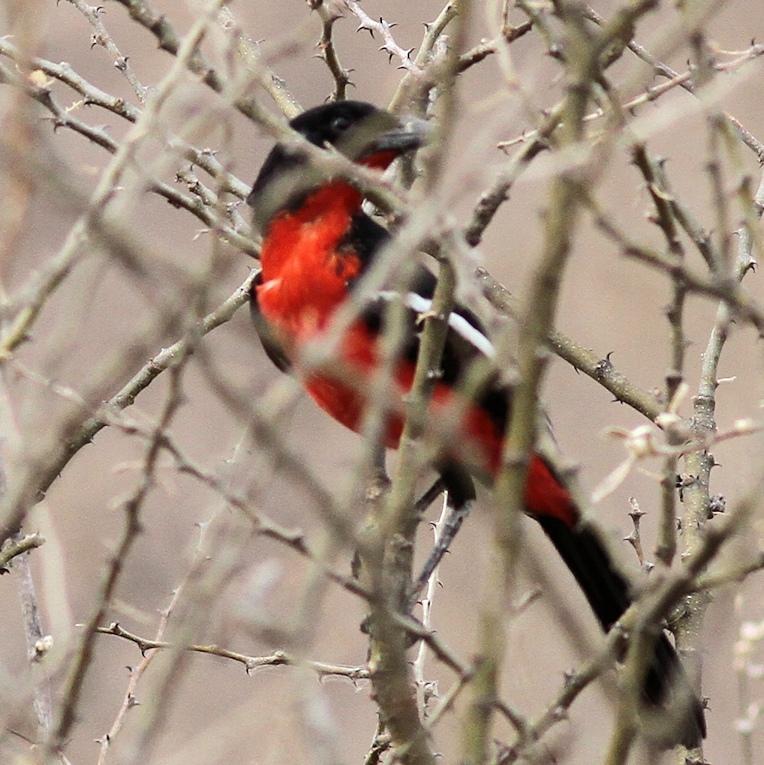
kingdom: Animalia
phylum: Chordata
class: Aves
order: Passeriformes
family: Malaconotidae
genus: Laniarius
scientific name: Laniarius atrococcineus
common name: Crimson-breasted shrike
